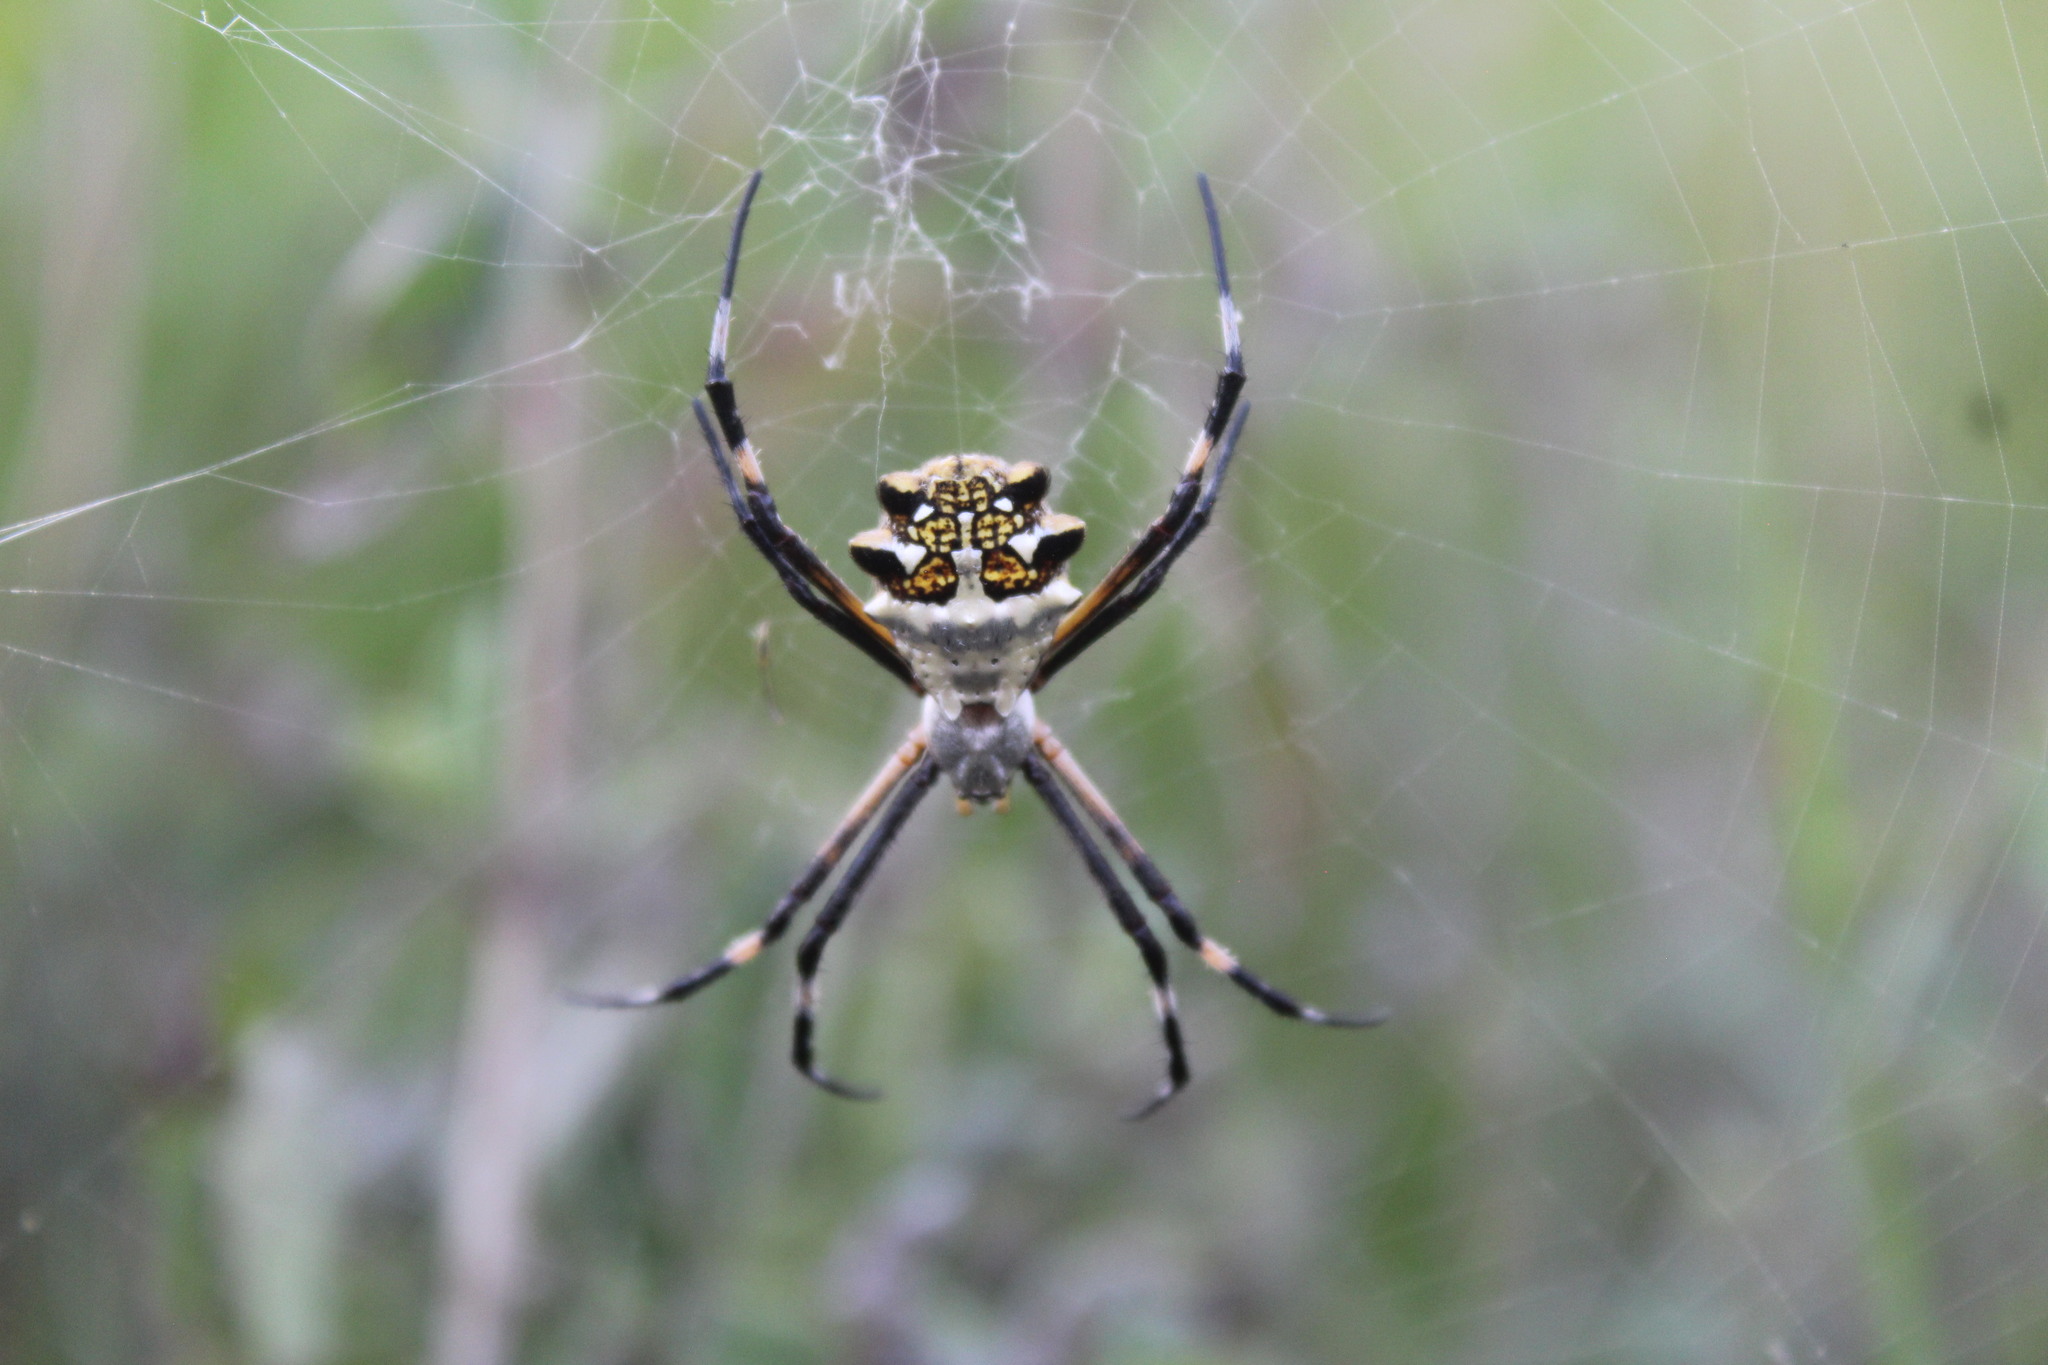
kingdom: Animalia
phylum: Arthropoda
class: Arachnida
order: Araneae
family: Araneidae
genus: Argiope
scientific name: Argiope argentata
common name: Orb weavers
